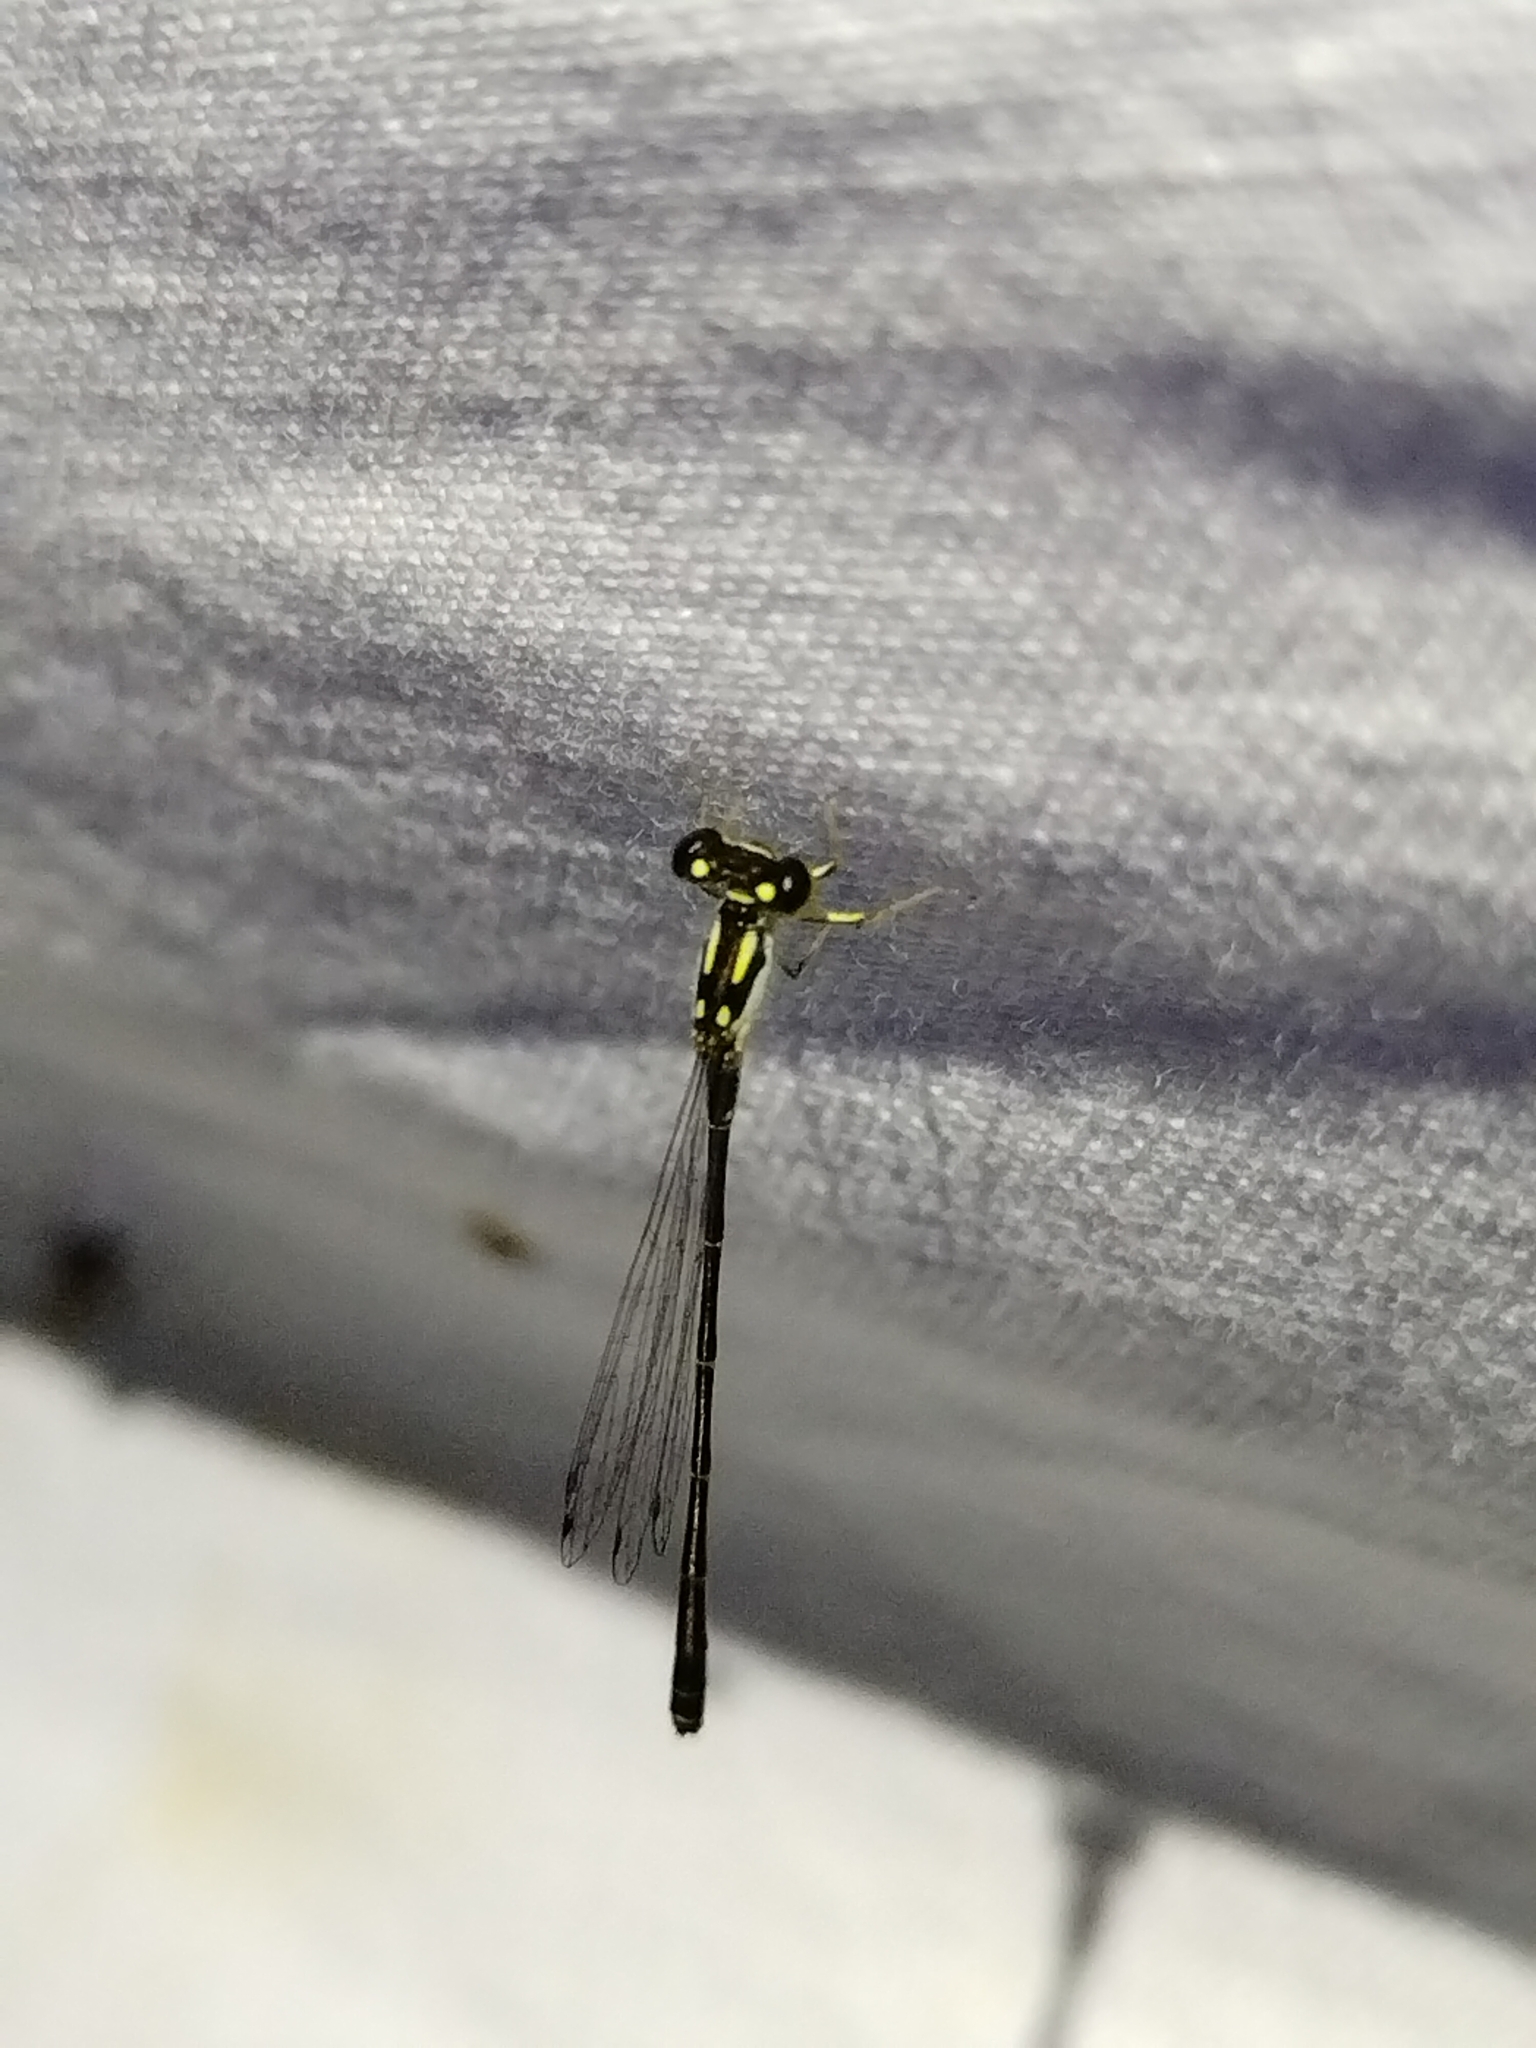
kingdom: Animalia
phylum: Arthropoda
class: Insecta
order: Odonata
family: Coenagrionidae
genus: Ischnura
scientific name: Ischnura posita
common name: Fragile forktail
